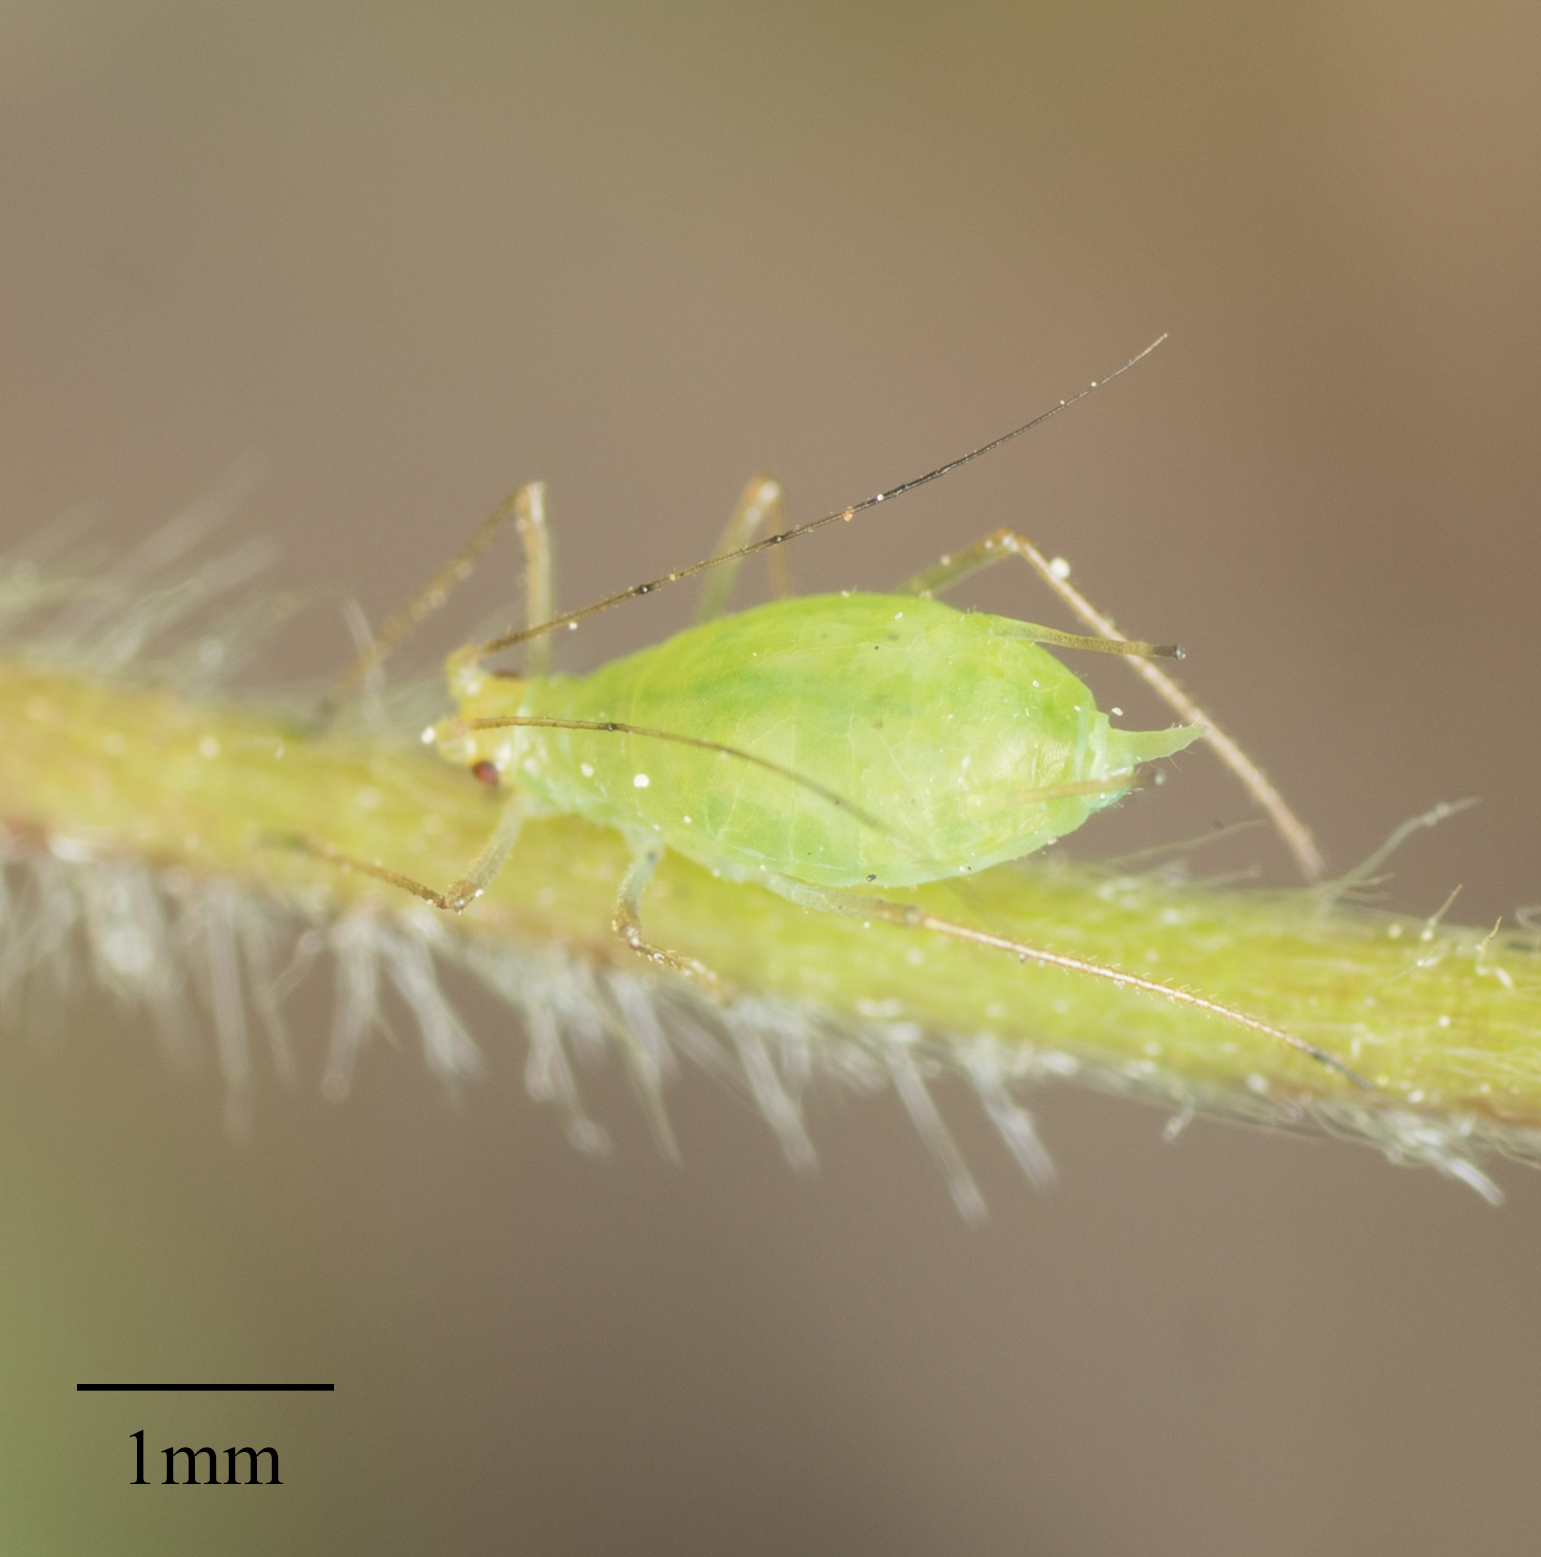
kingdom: Animalia
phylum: Arthropoda
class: Insecta
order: Hemiptera
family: Aphididae
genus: Macrosiphum
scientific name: Macrosiphum euphorbiae
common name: Potato aphid
